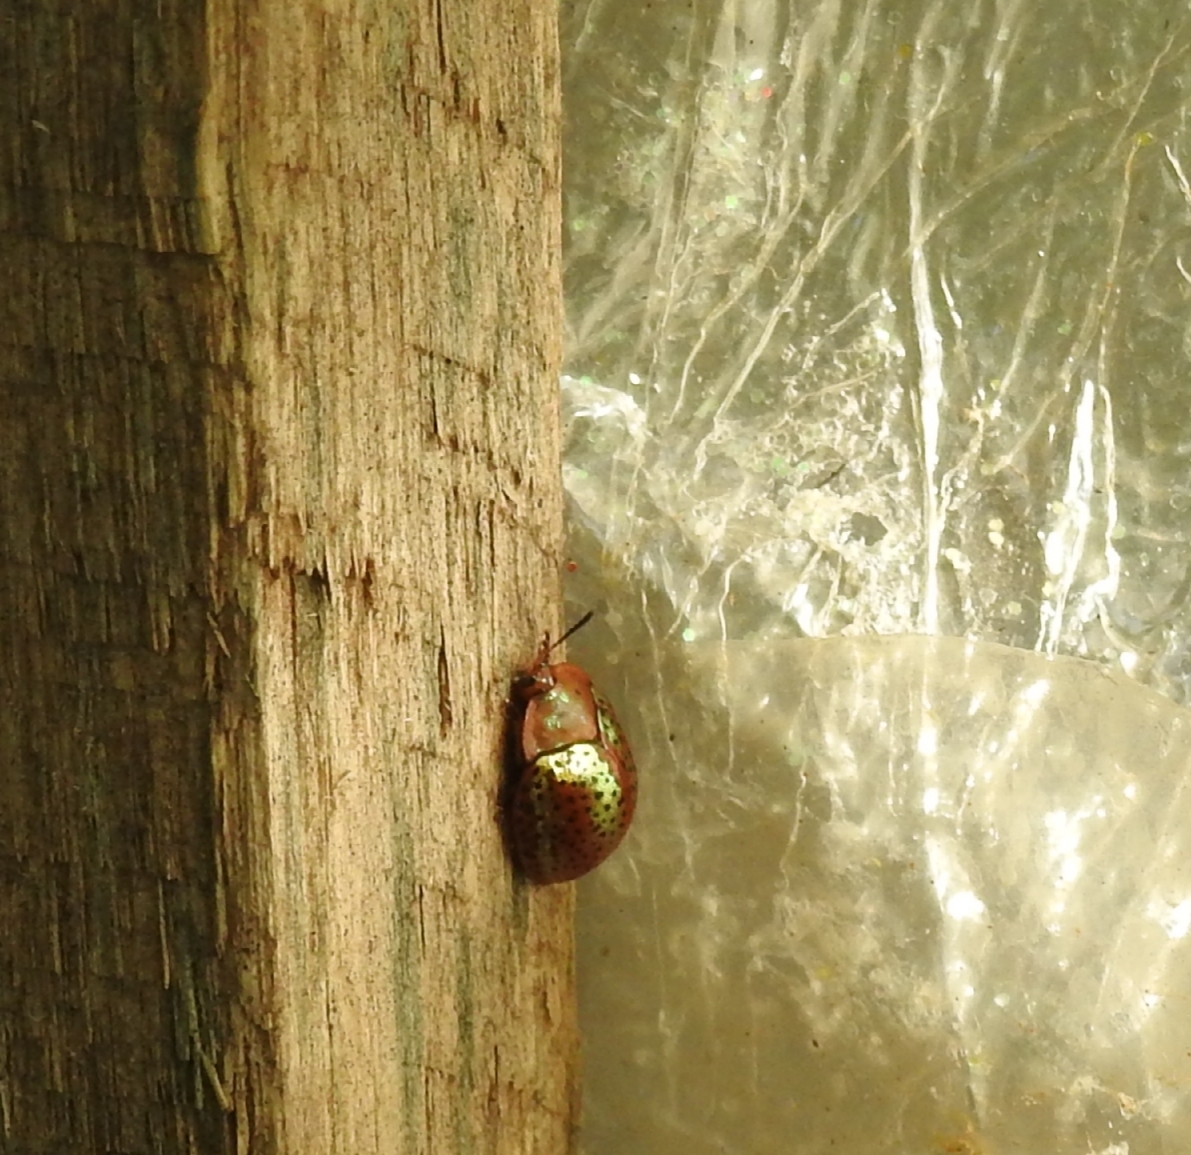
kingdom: Animalia
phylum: Arthropoda
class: Insecta
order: Coleoptera
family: Chrysomelidae
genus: Chelymorpha
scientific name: Chelymorpha cribraria
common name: Tortoise beetle
